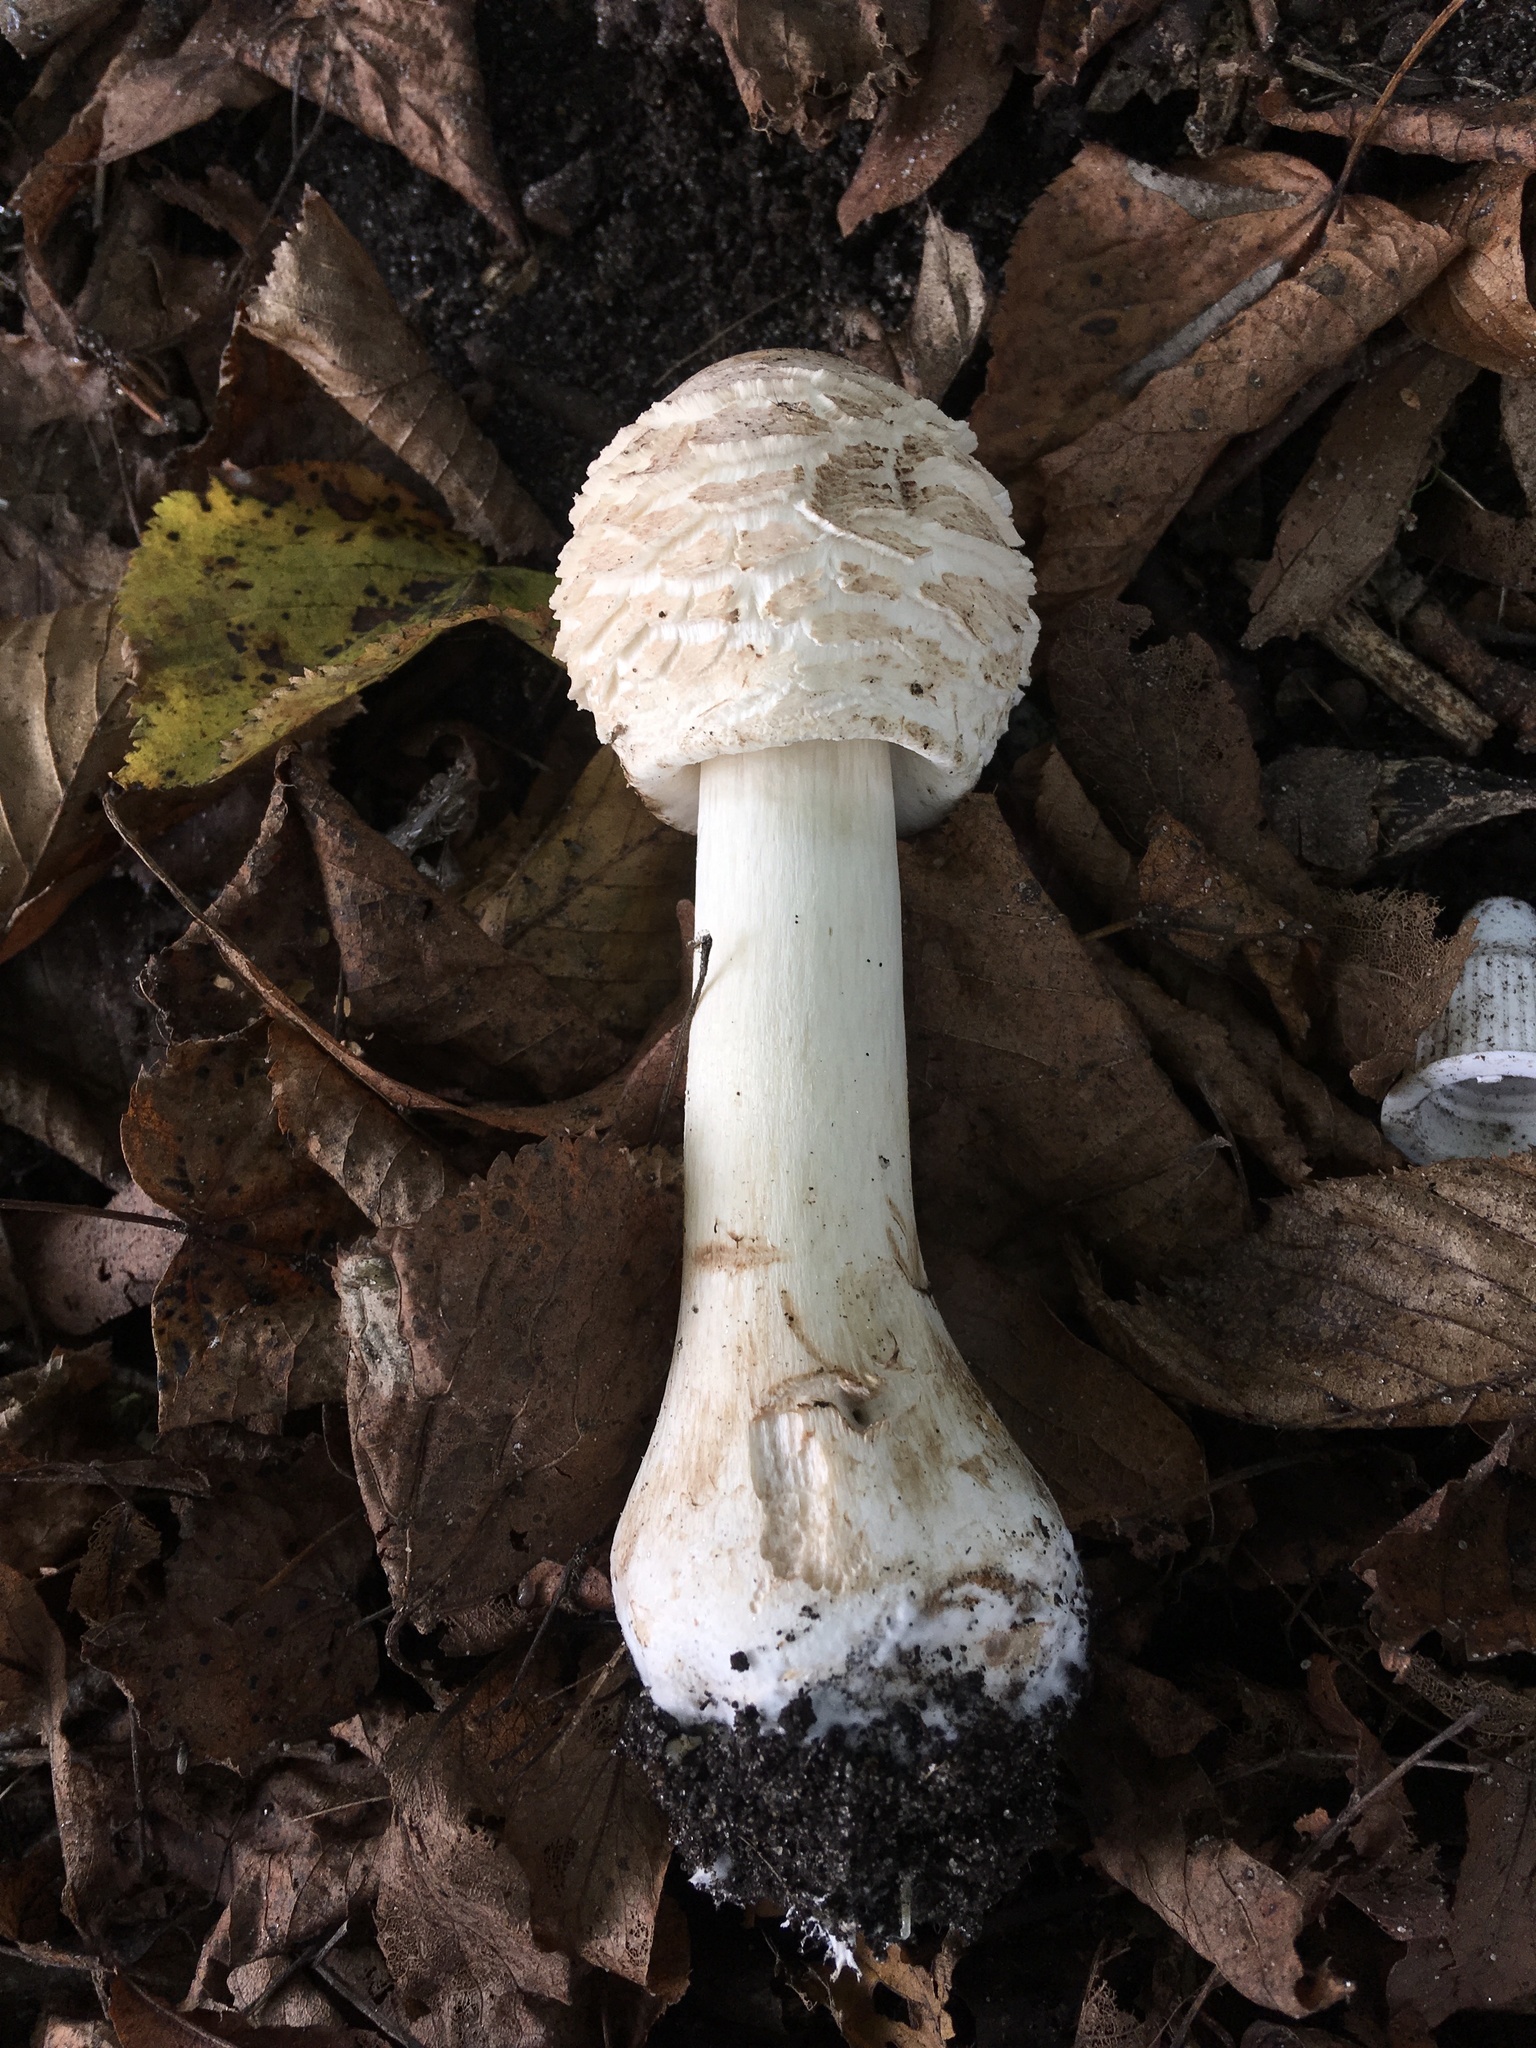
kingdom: Fungi
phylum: Basidiomycota
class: Agaricomycetes
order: Agaricales
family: Agaricaceae
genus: Chlorophyllum
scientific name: Chlorophyllum rhacodes
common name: Shaggy parasol
